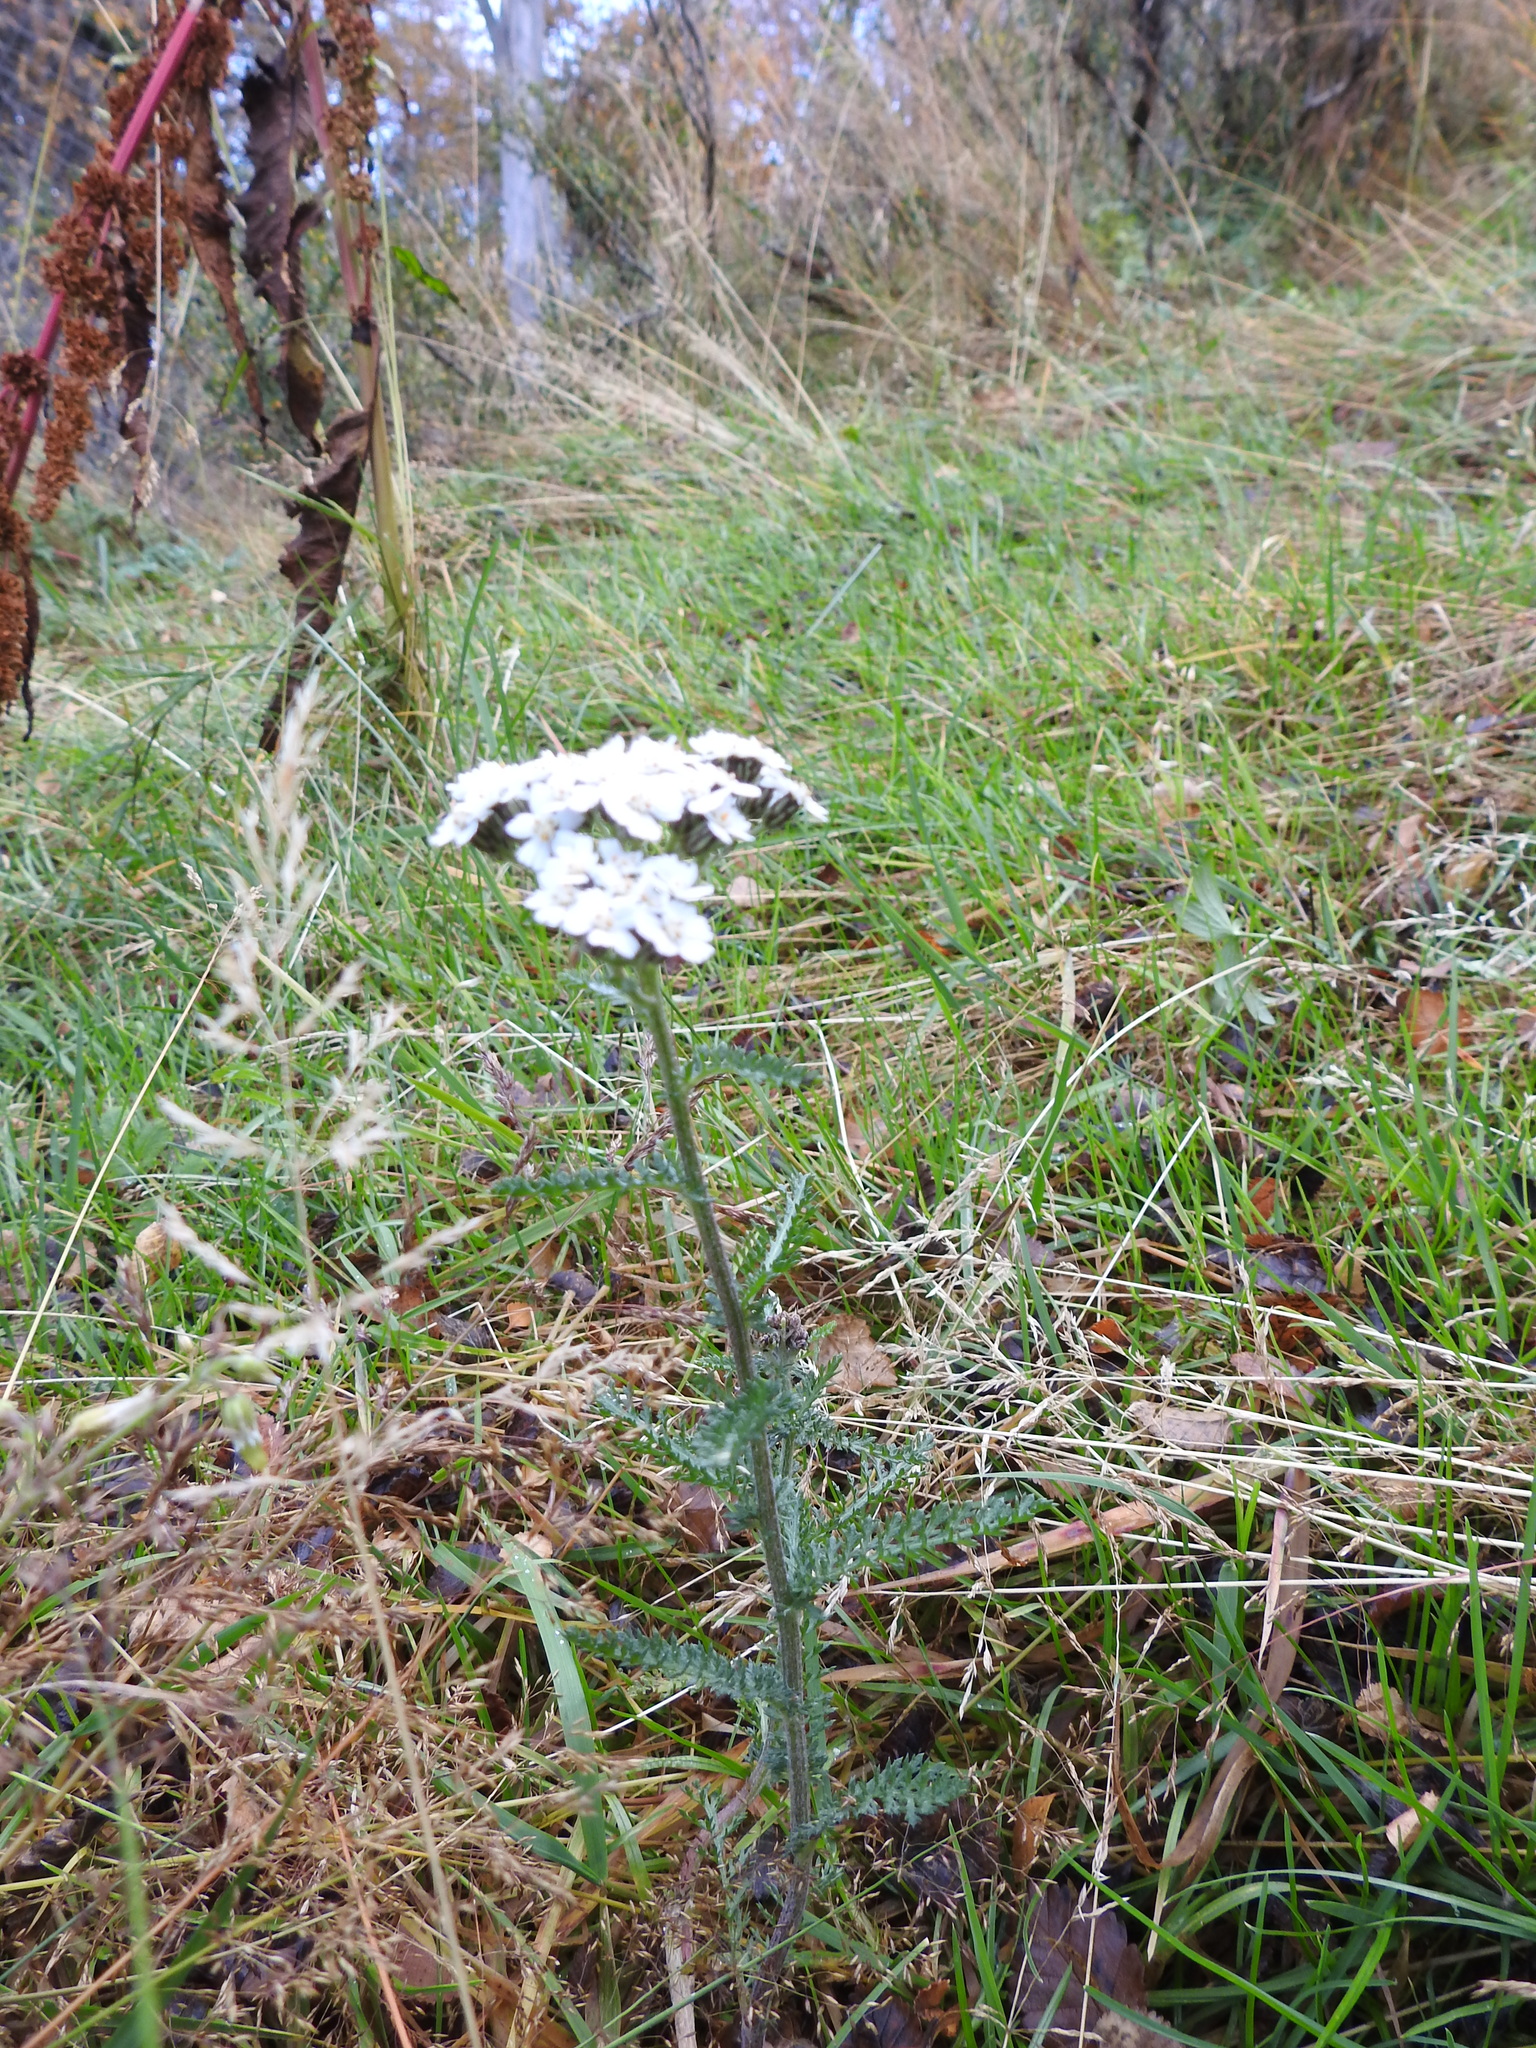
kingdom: Plantae
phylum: Tracheophyta
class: Magnoliopsida
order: Asterales
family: Asteraceae
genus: Achillea
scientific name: Achillea millefolium
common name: Yarrow
